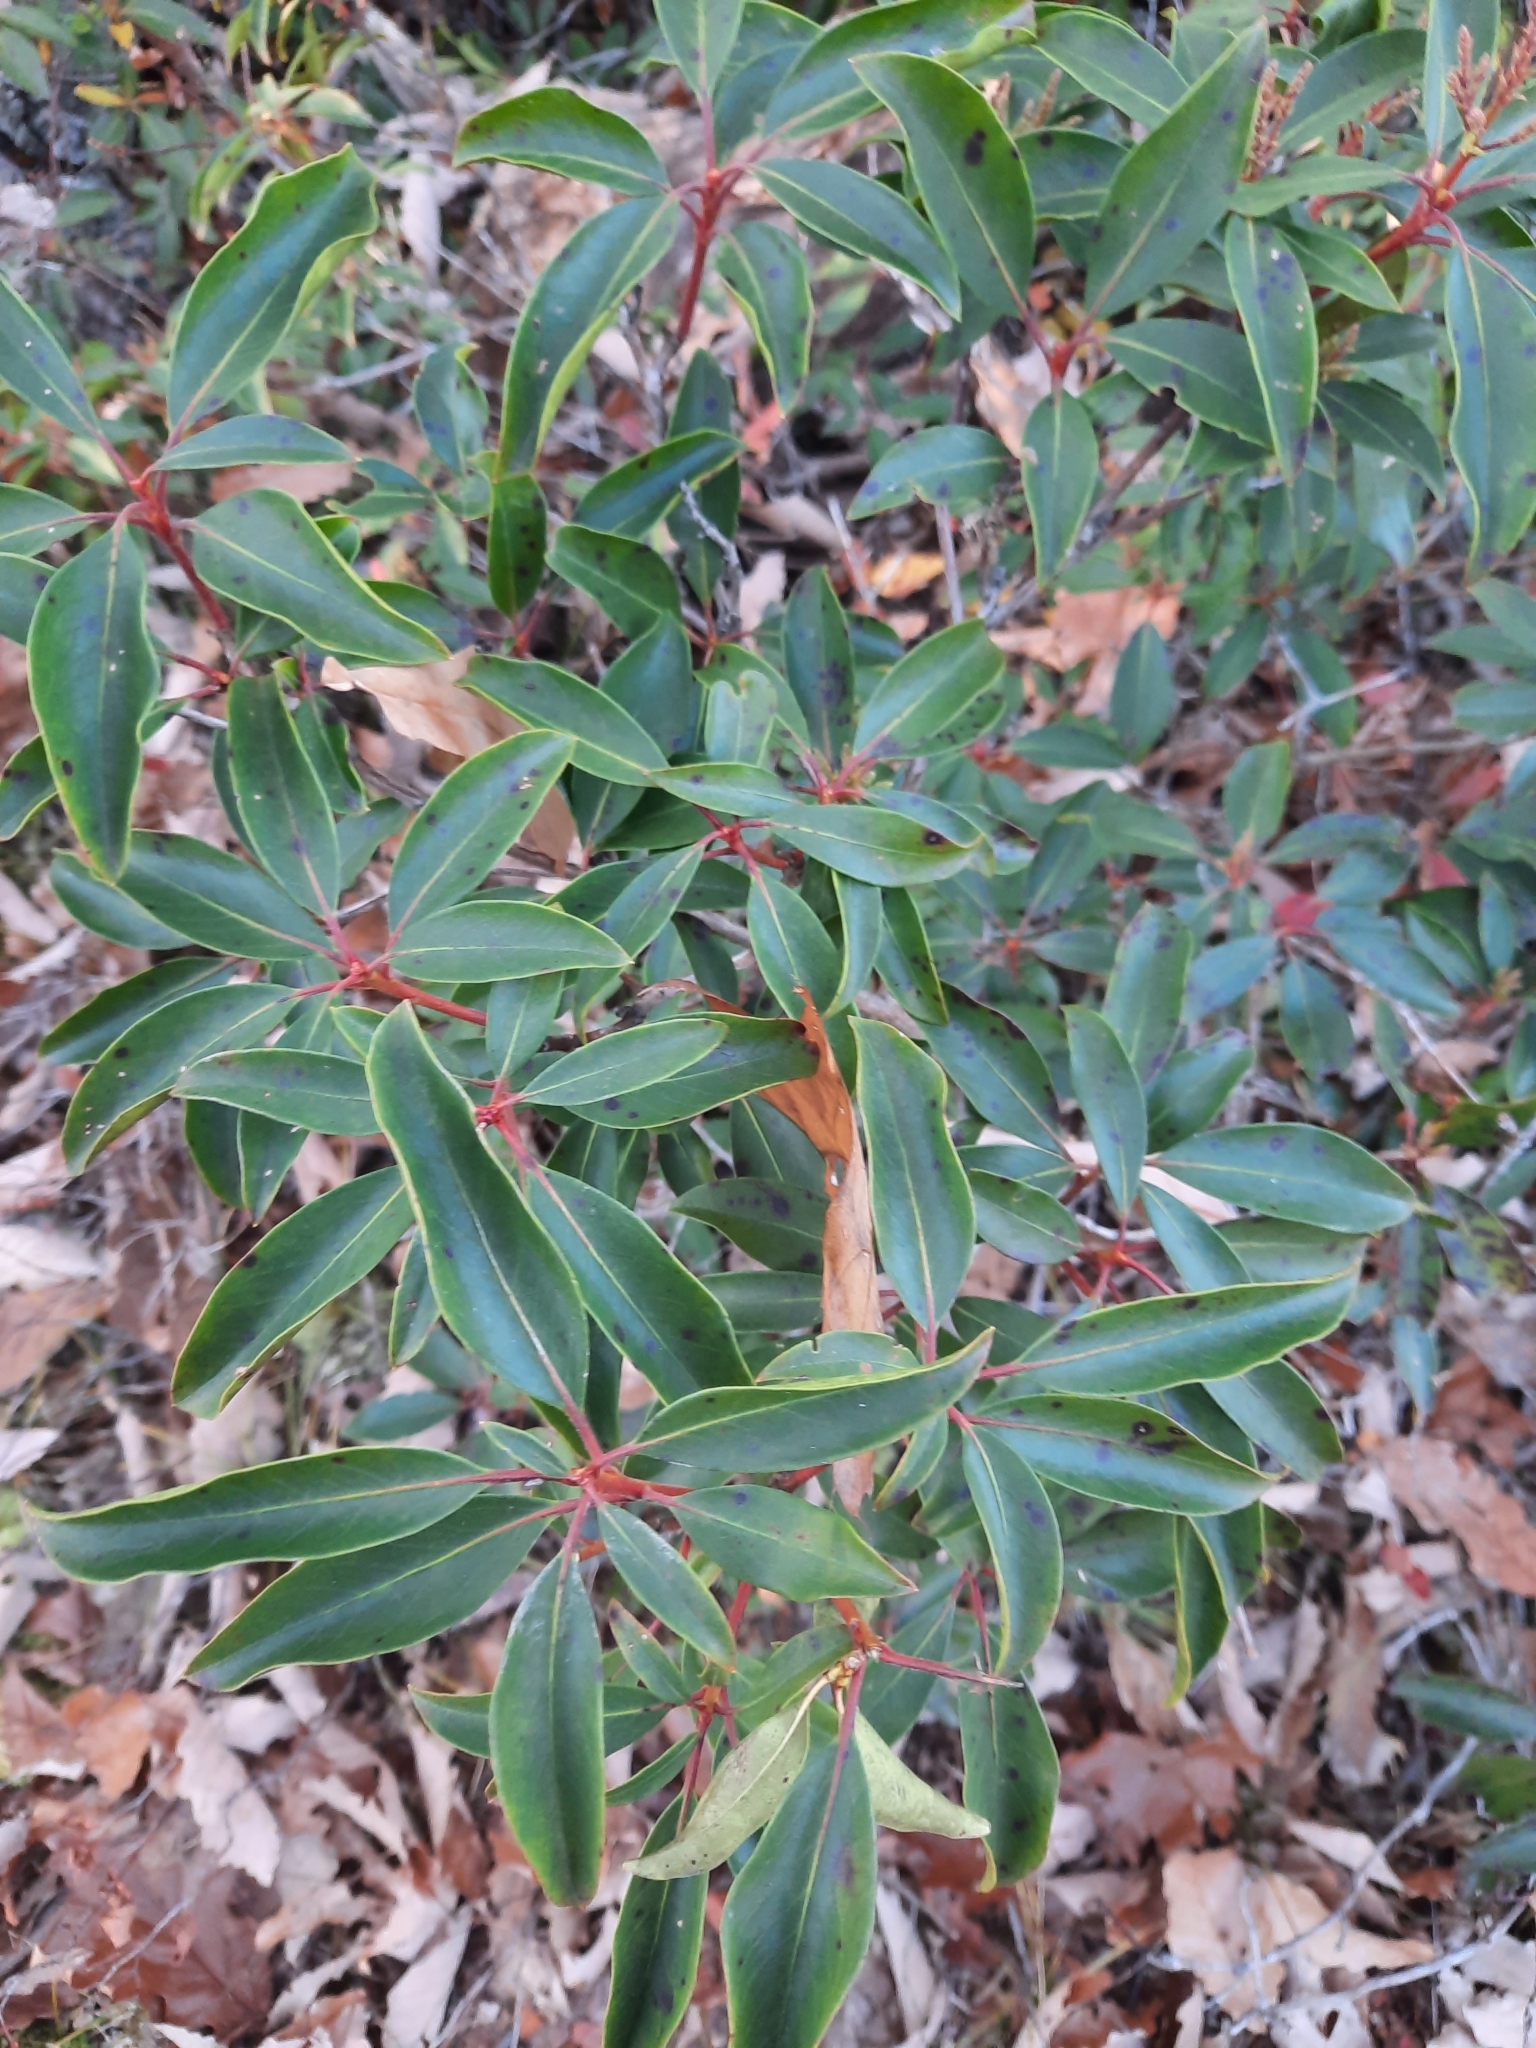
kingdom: Plantae
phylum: Tracheophyta
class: Magnoliopsida
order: Ericales
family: Ericaceae
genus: Kalmia
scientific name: Kalmia latifolia
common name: Mountain-laurel
